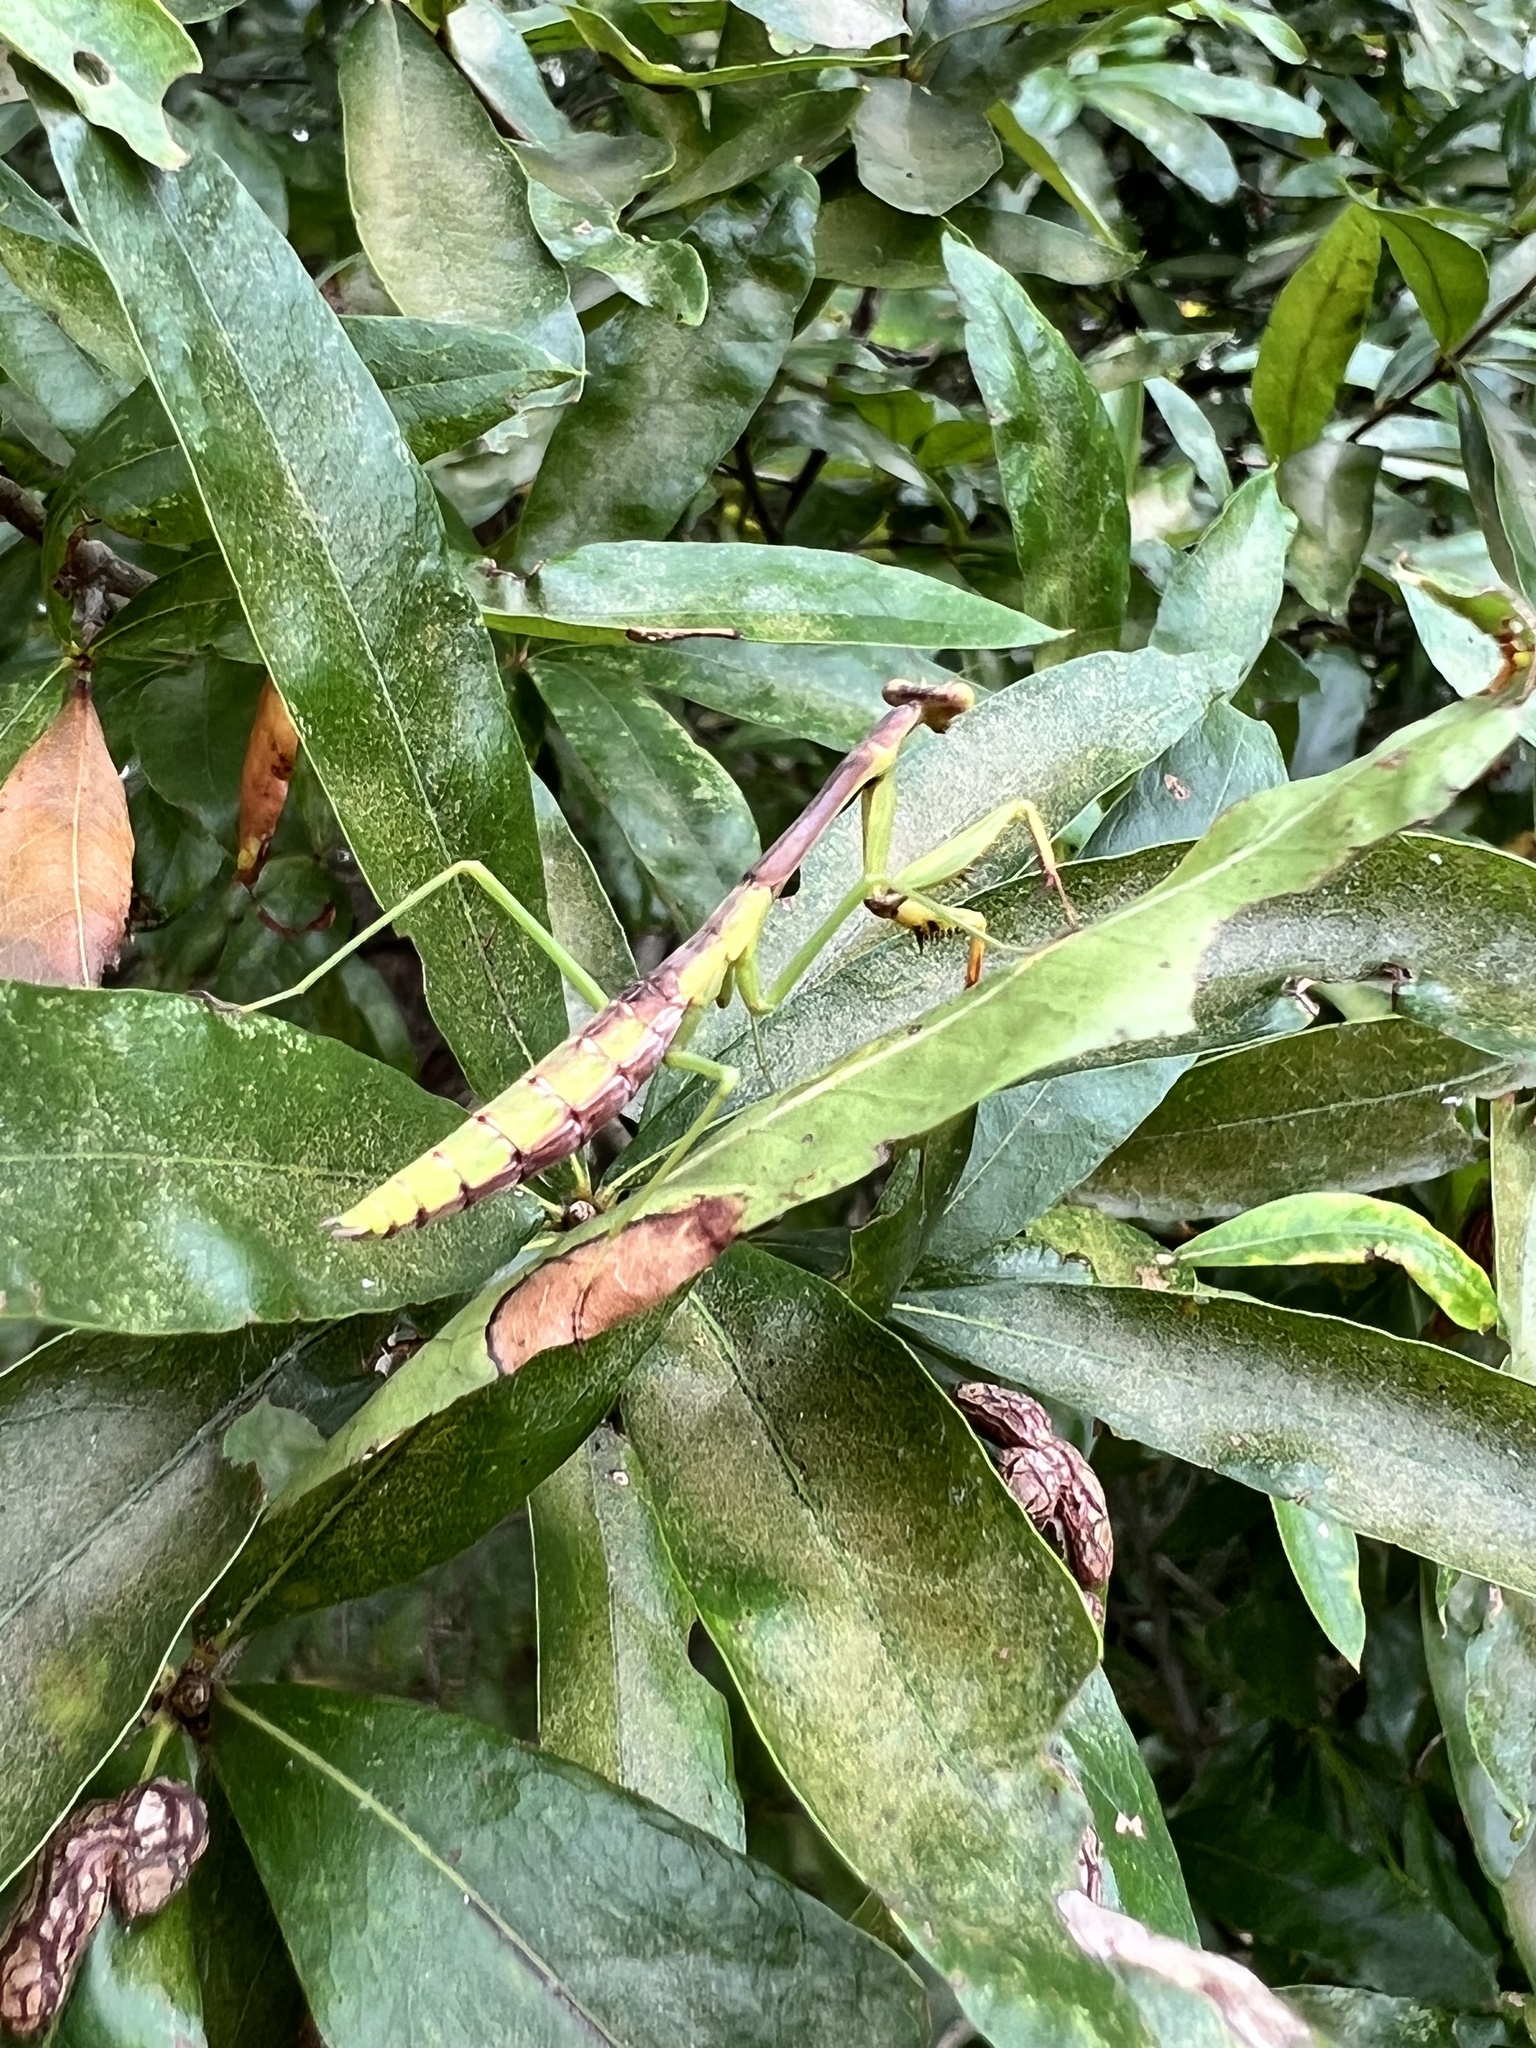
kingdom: Animalia
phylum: Arthropoda
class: Insecta
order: Mantodea
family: Mantidae
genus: Stagmomantis
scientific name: Stagmomantis carolina
